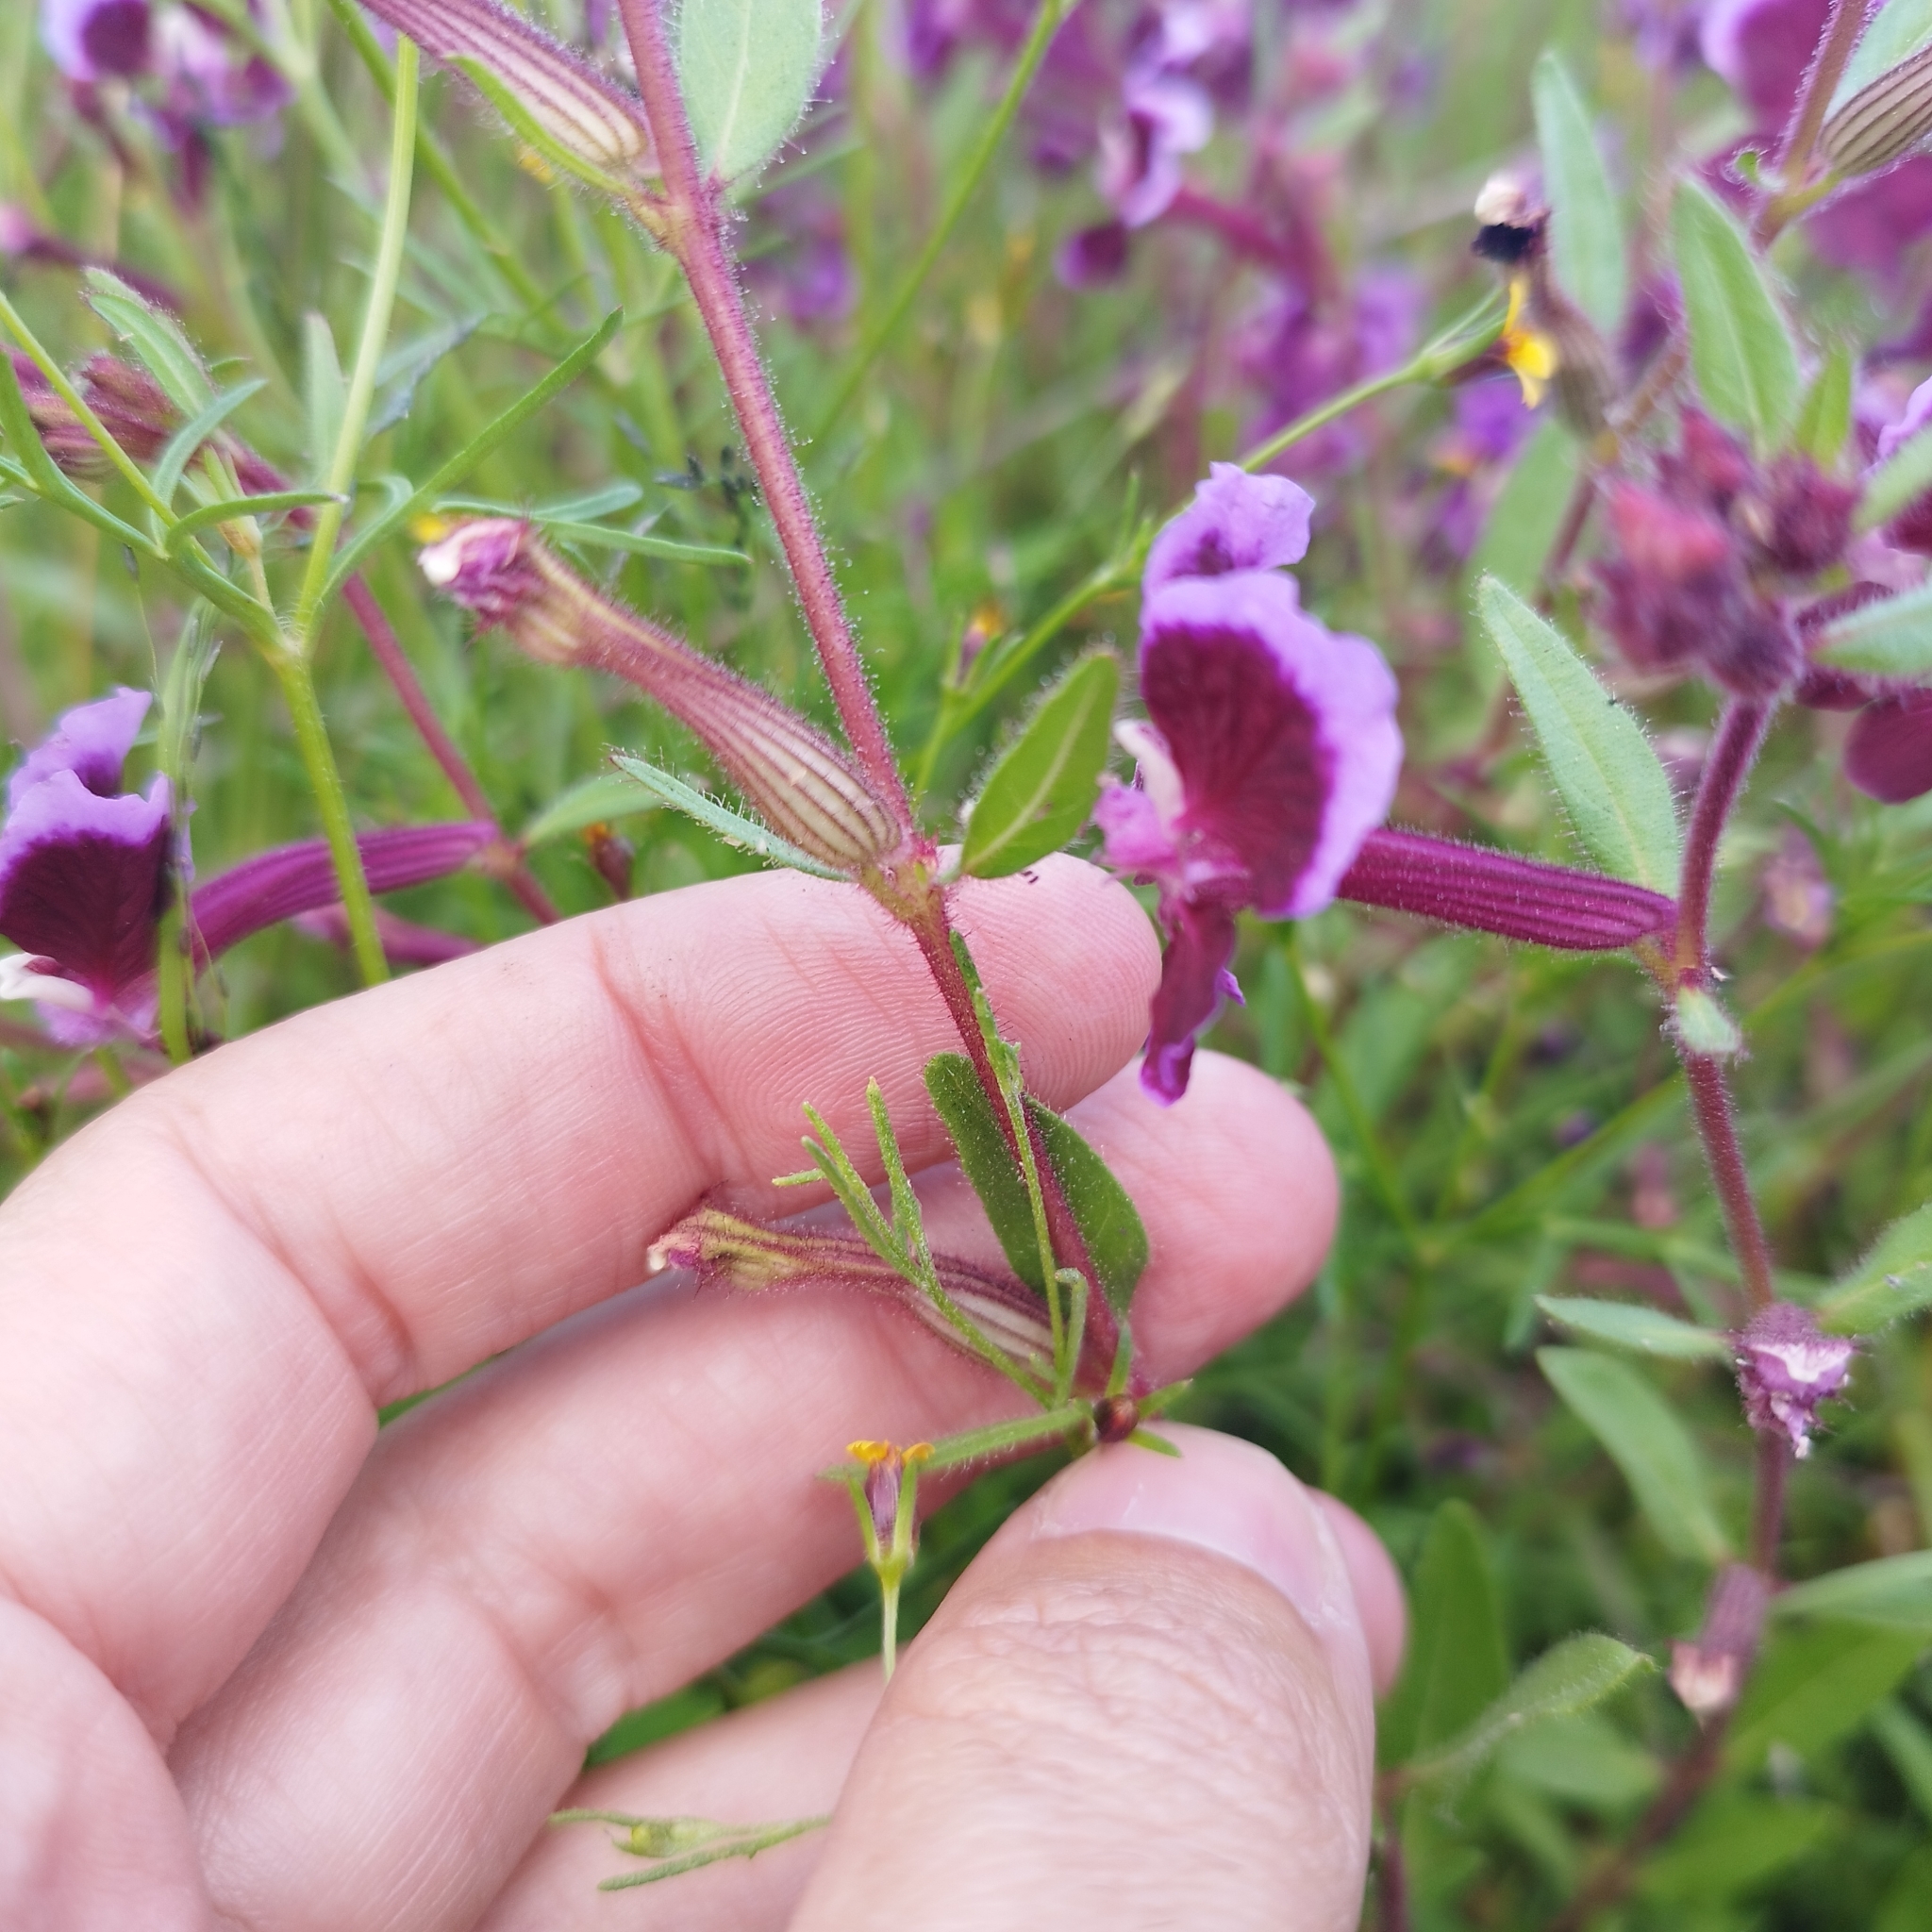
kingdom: Plantae
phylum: Tracheophyta
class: Magnoliopsida
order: Myrtales
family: Lythraceae
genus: Cuphea
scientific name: Cuphea lanceolata
